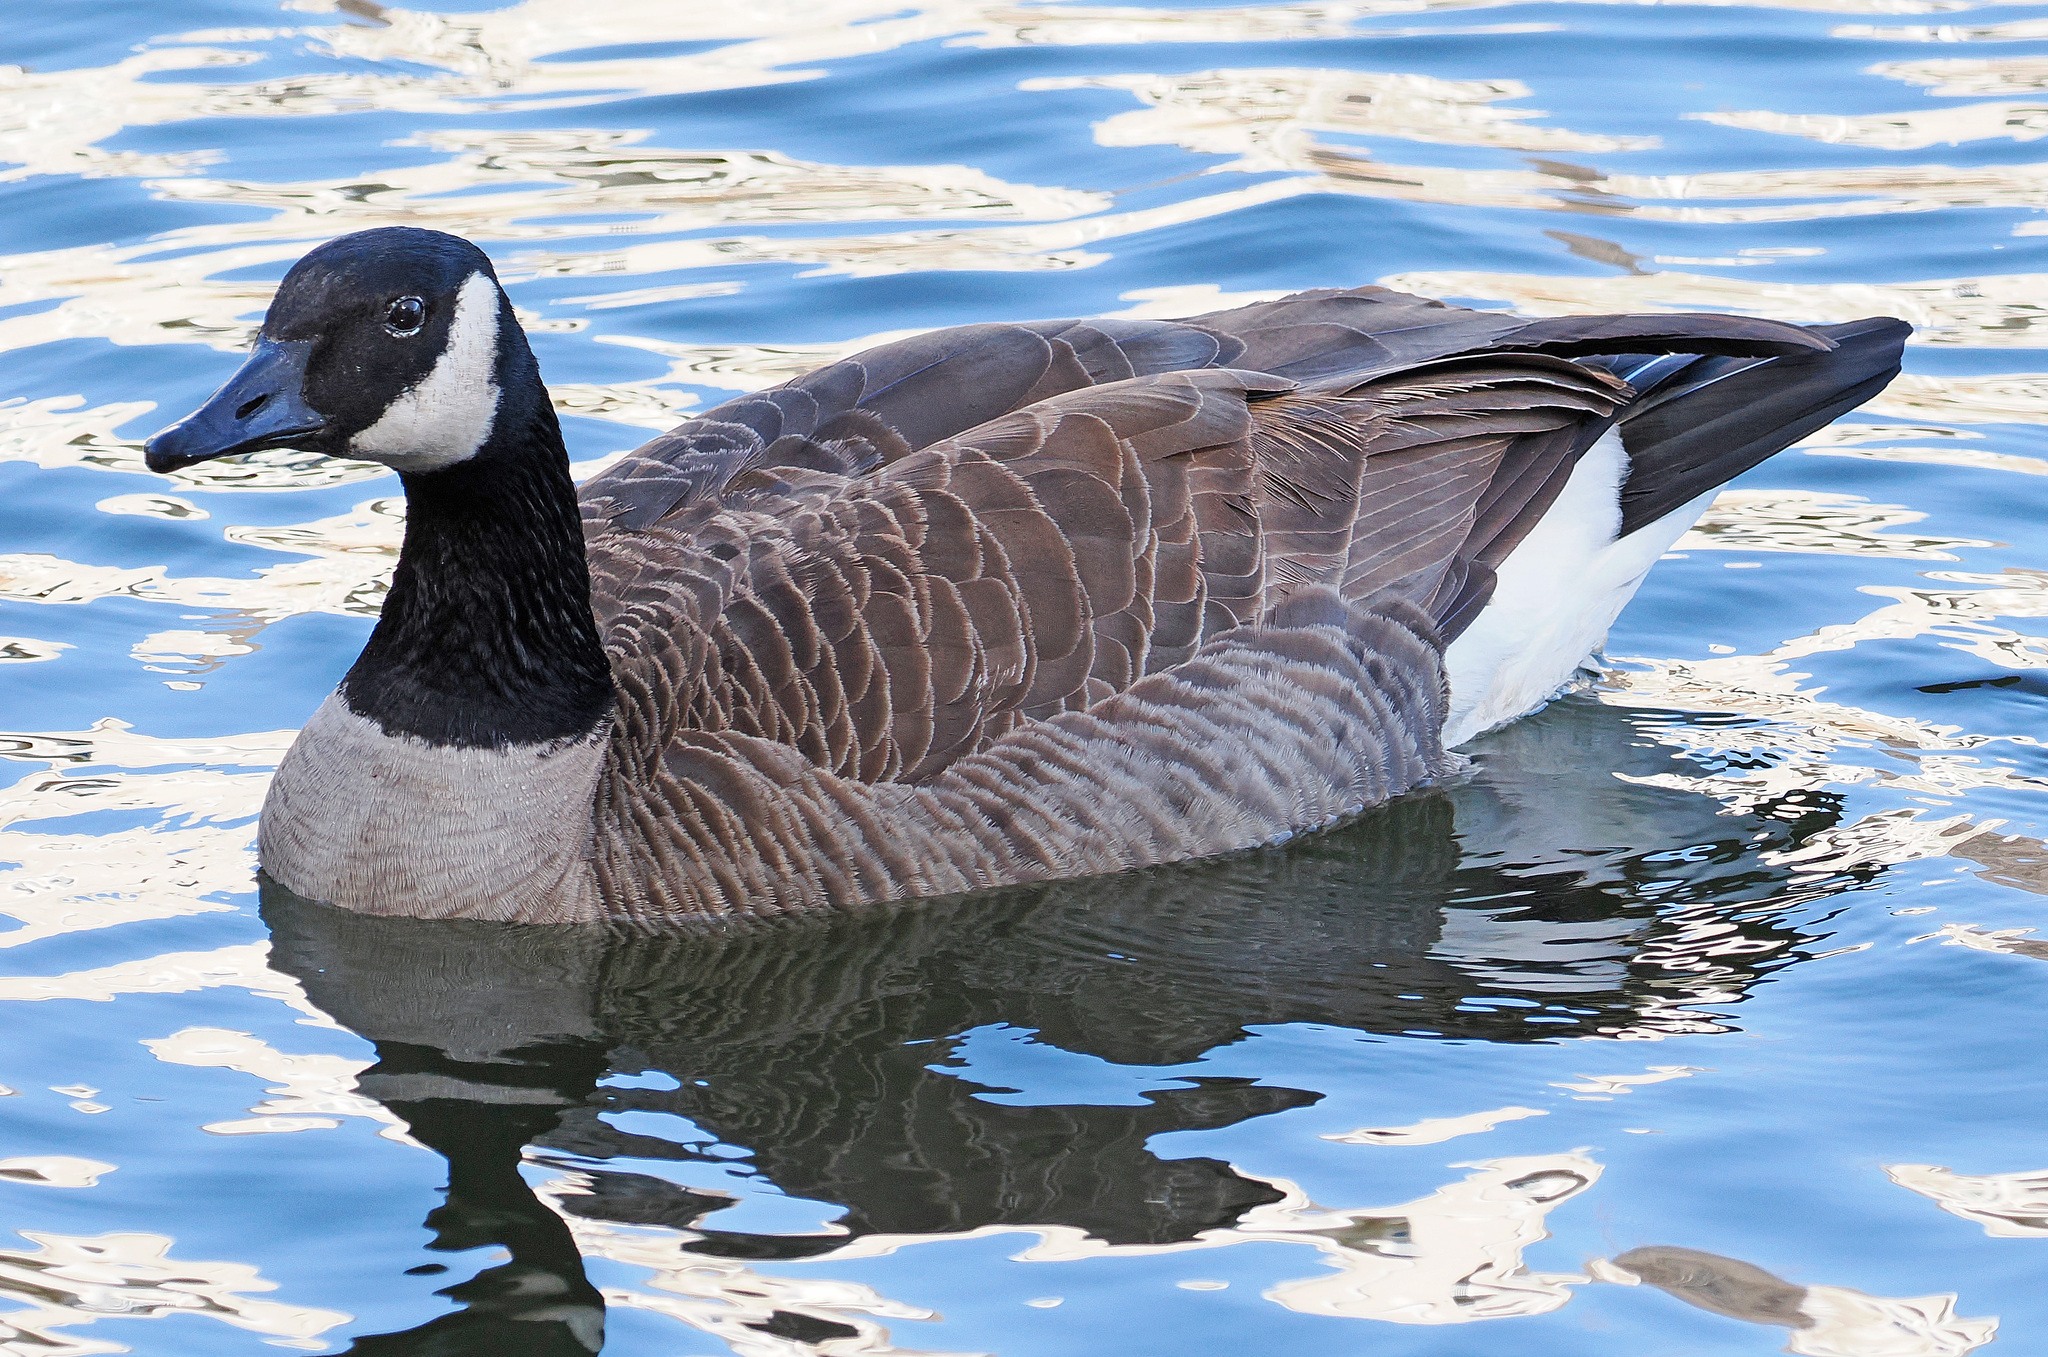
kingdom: Animalia
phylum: Chordata
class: Aves
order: Anseriformes
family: Anatidae
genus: Branta
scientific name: Branta canadensis
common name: Canada goose
